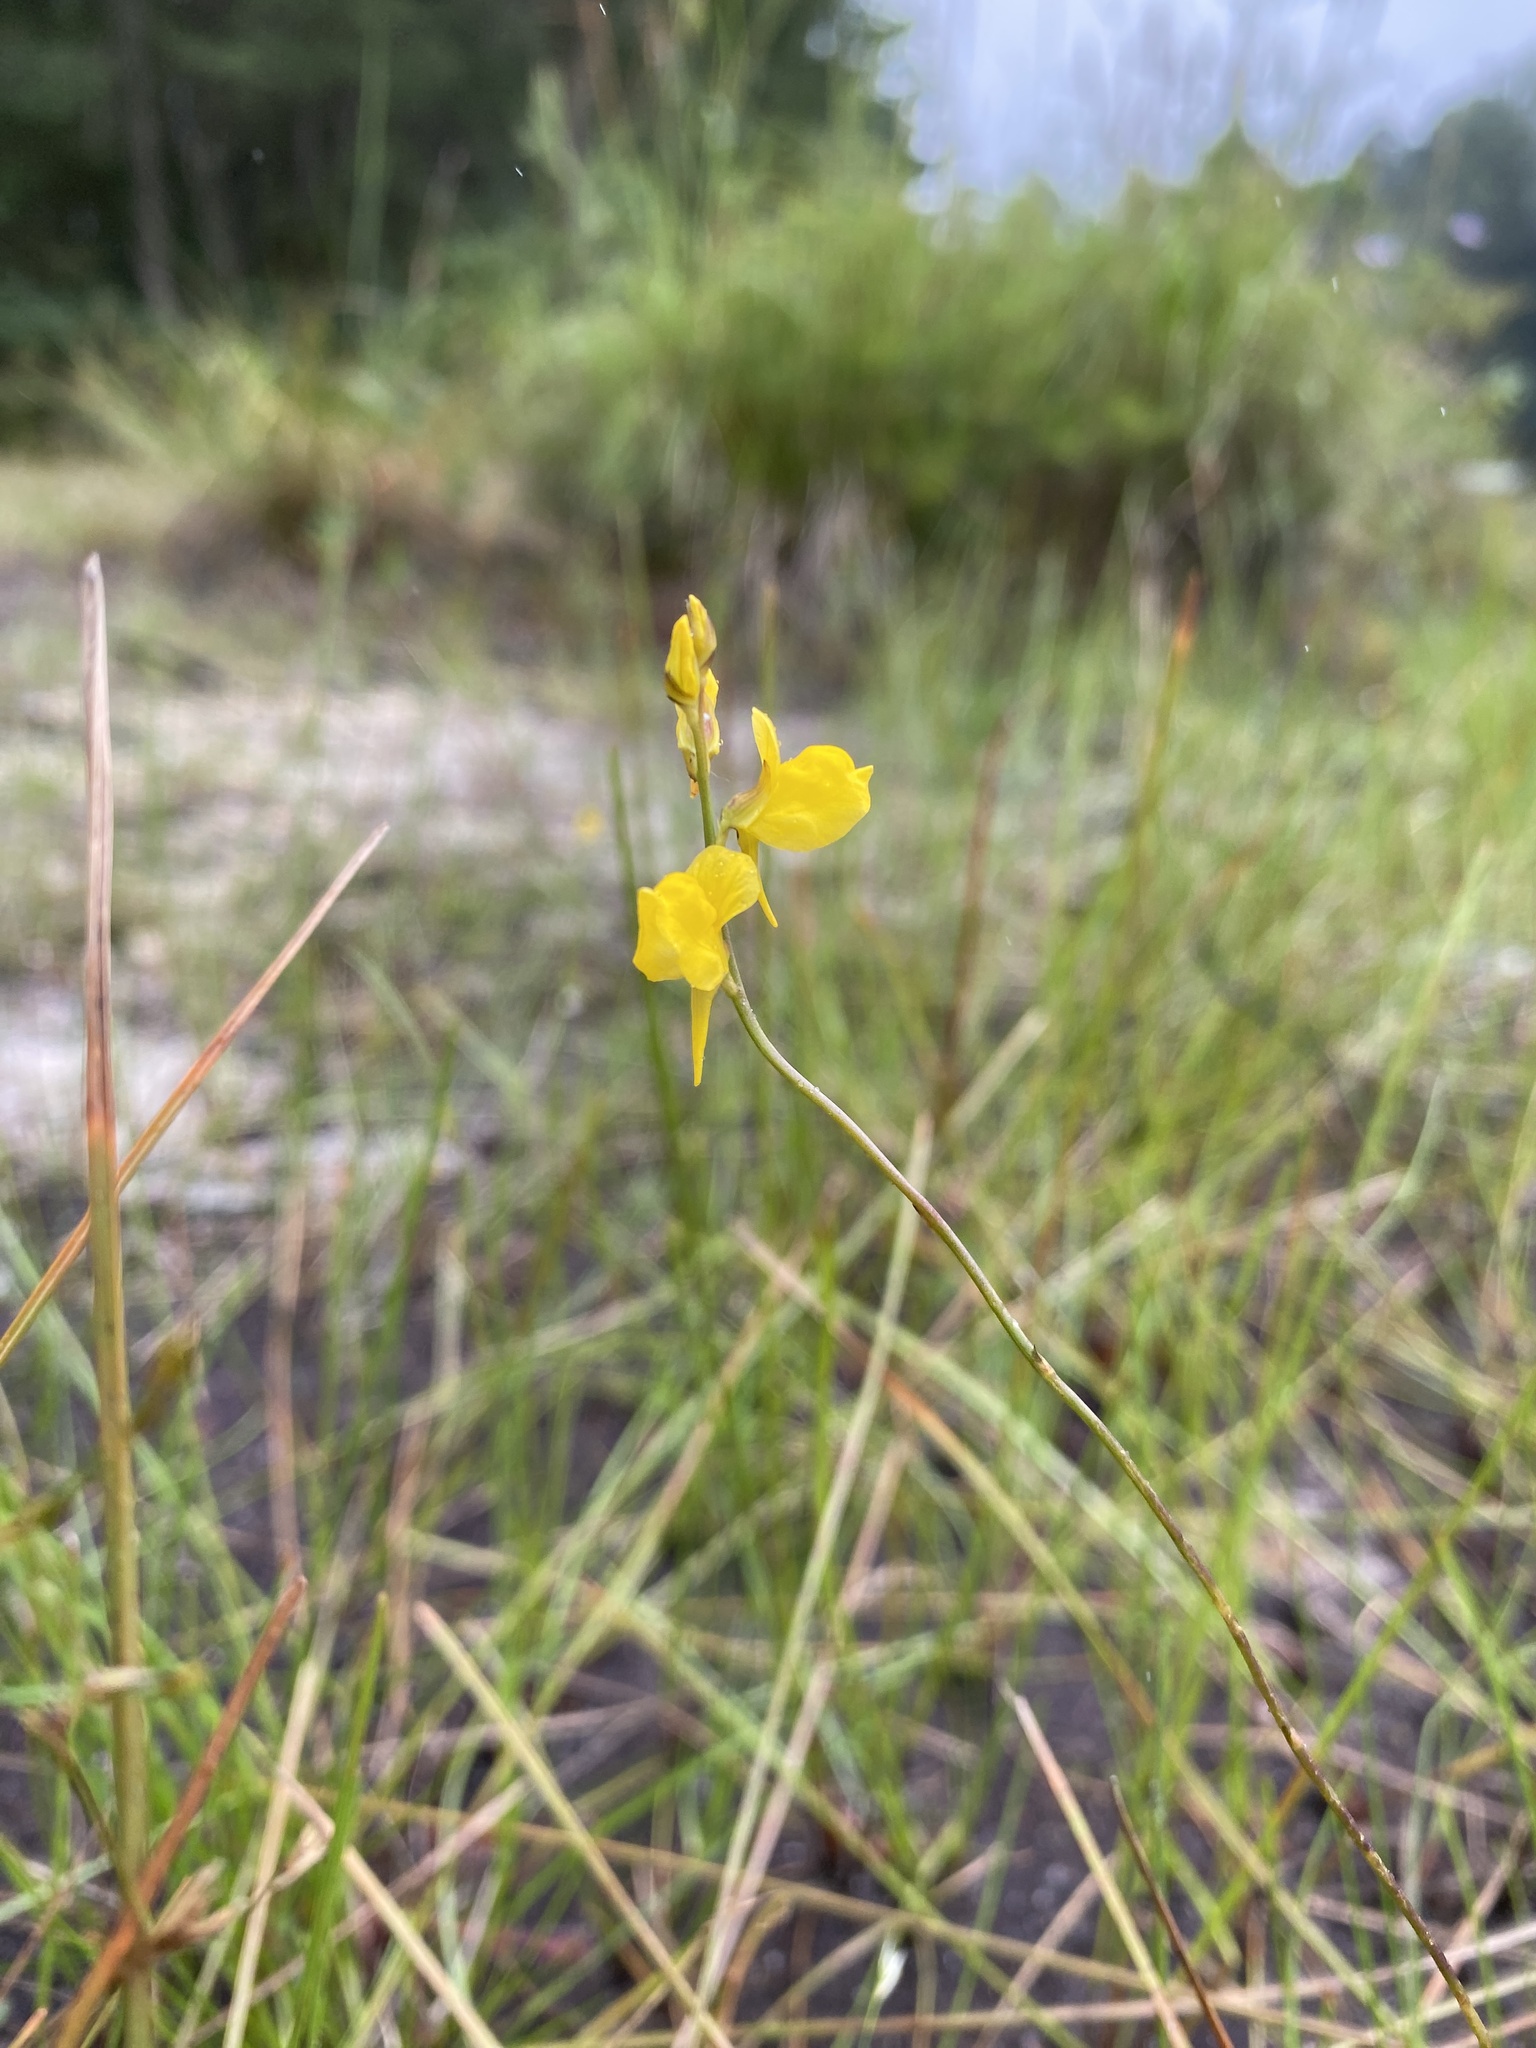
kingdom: Plantae
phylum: Tracheophyta
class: Magnoliopsida
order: Lamiales
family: Lentibulariaceae
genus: Utricularia
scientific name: Utricularia juncea
